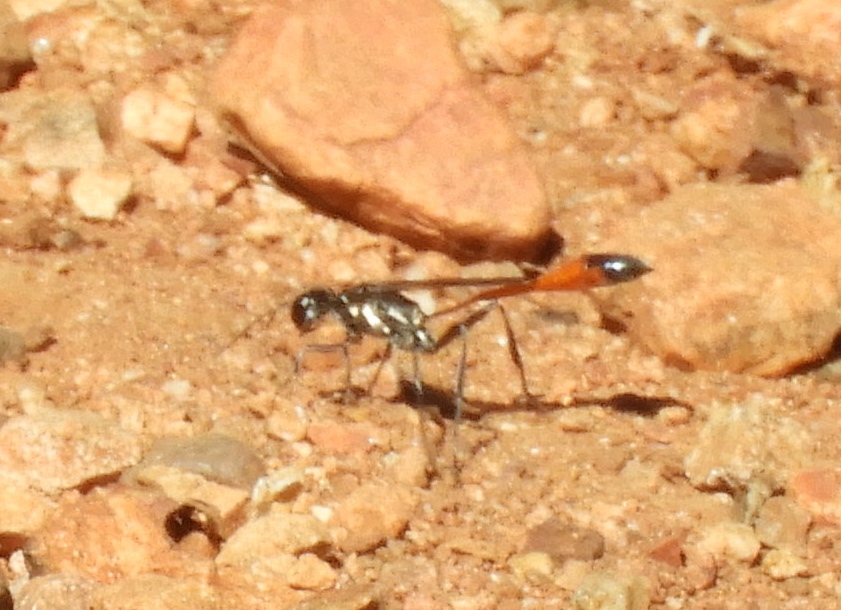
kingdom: Animalia
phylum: Arthropoda
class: Insecta
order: Hymenoptera
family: Sphecidae
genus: Ammophila
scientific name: Ammophila
